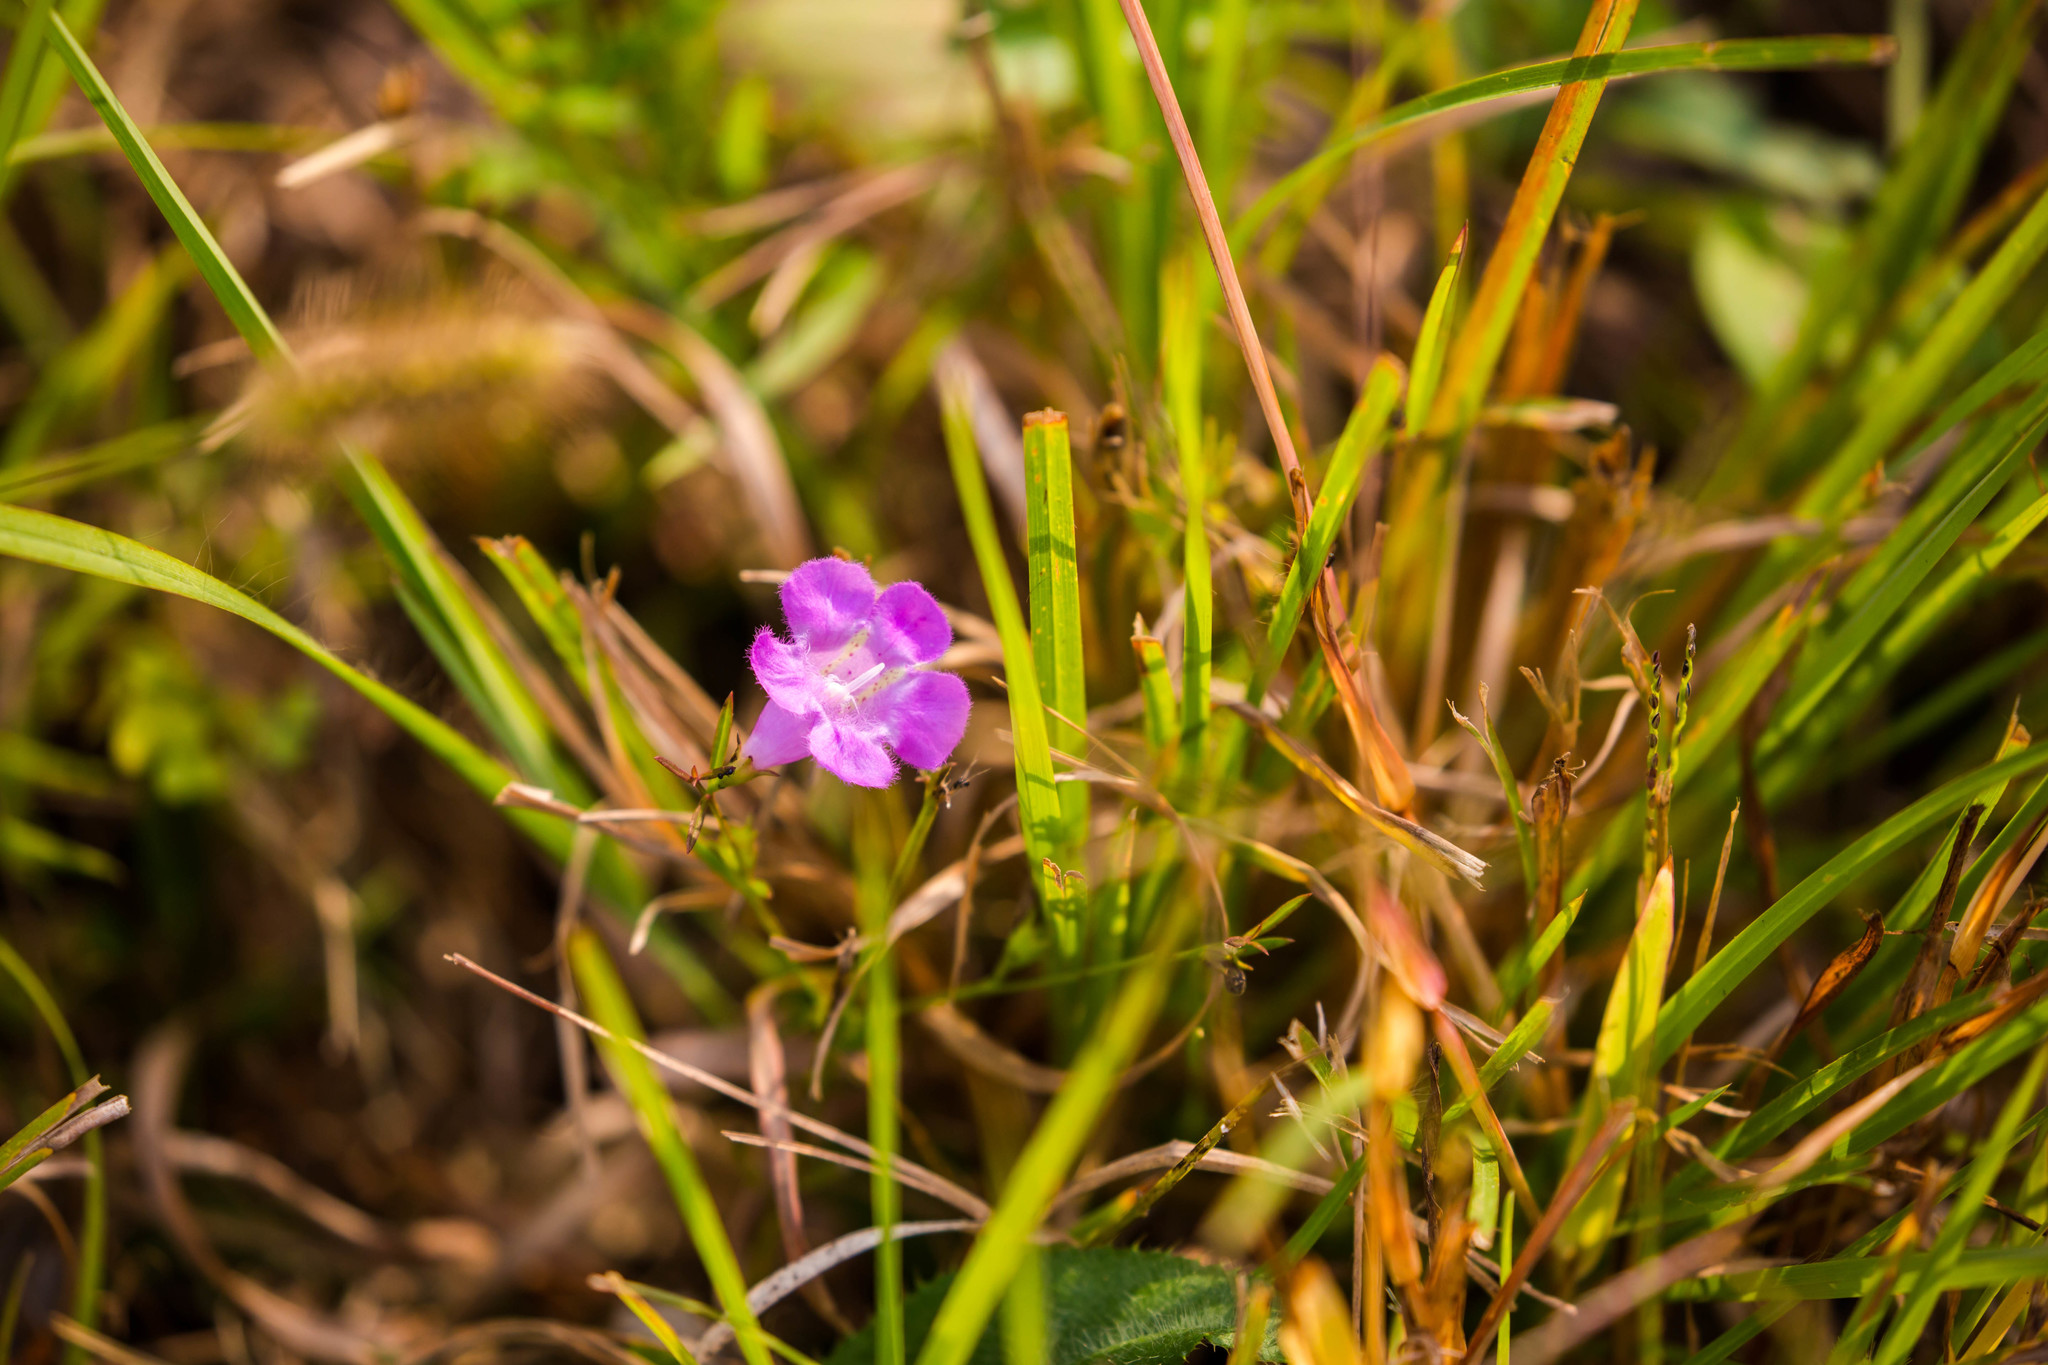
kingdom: Plantae
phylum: Tracheophyta
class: Magnoliopsida
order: Lamiales
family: Orobanchaceae
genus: Agalinis
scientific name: Agalinis purpurea
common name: Purple false foxglove
